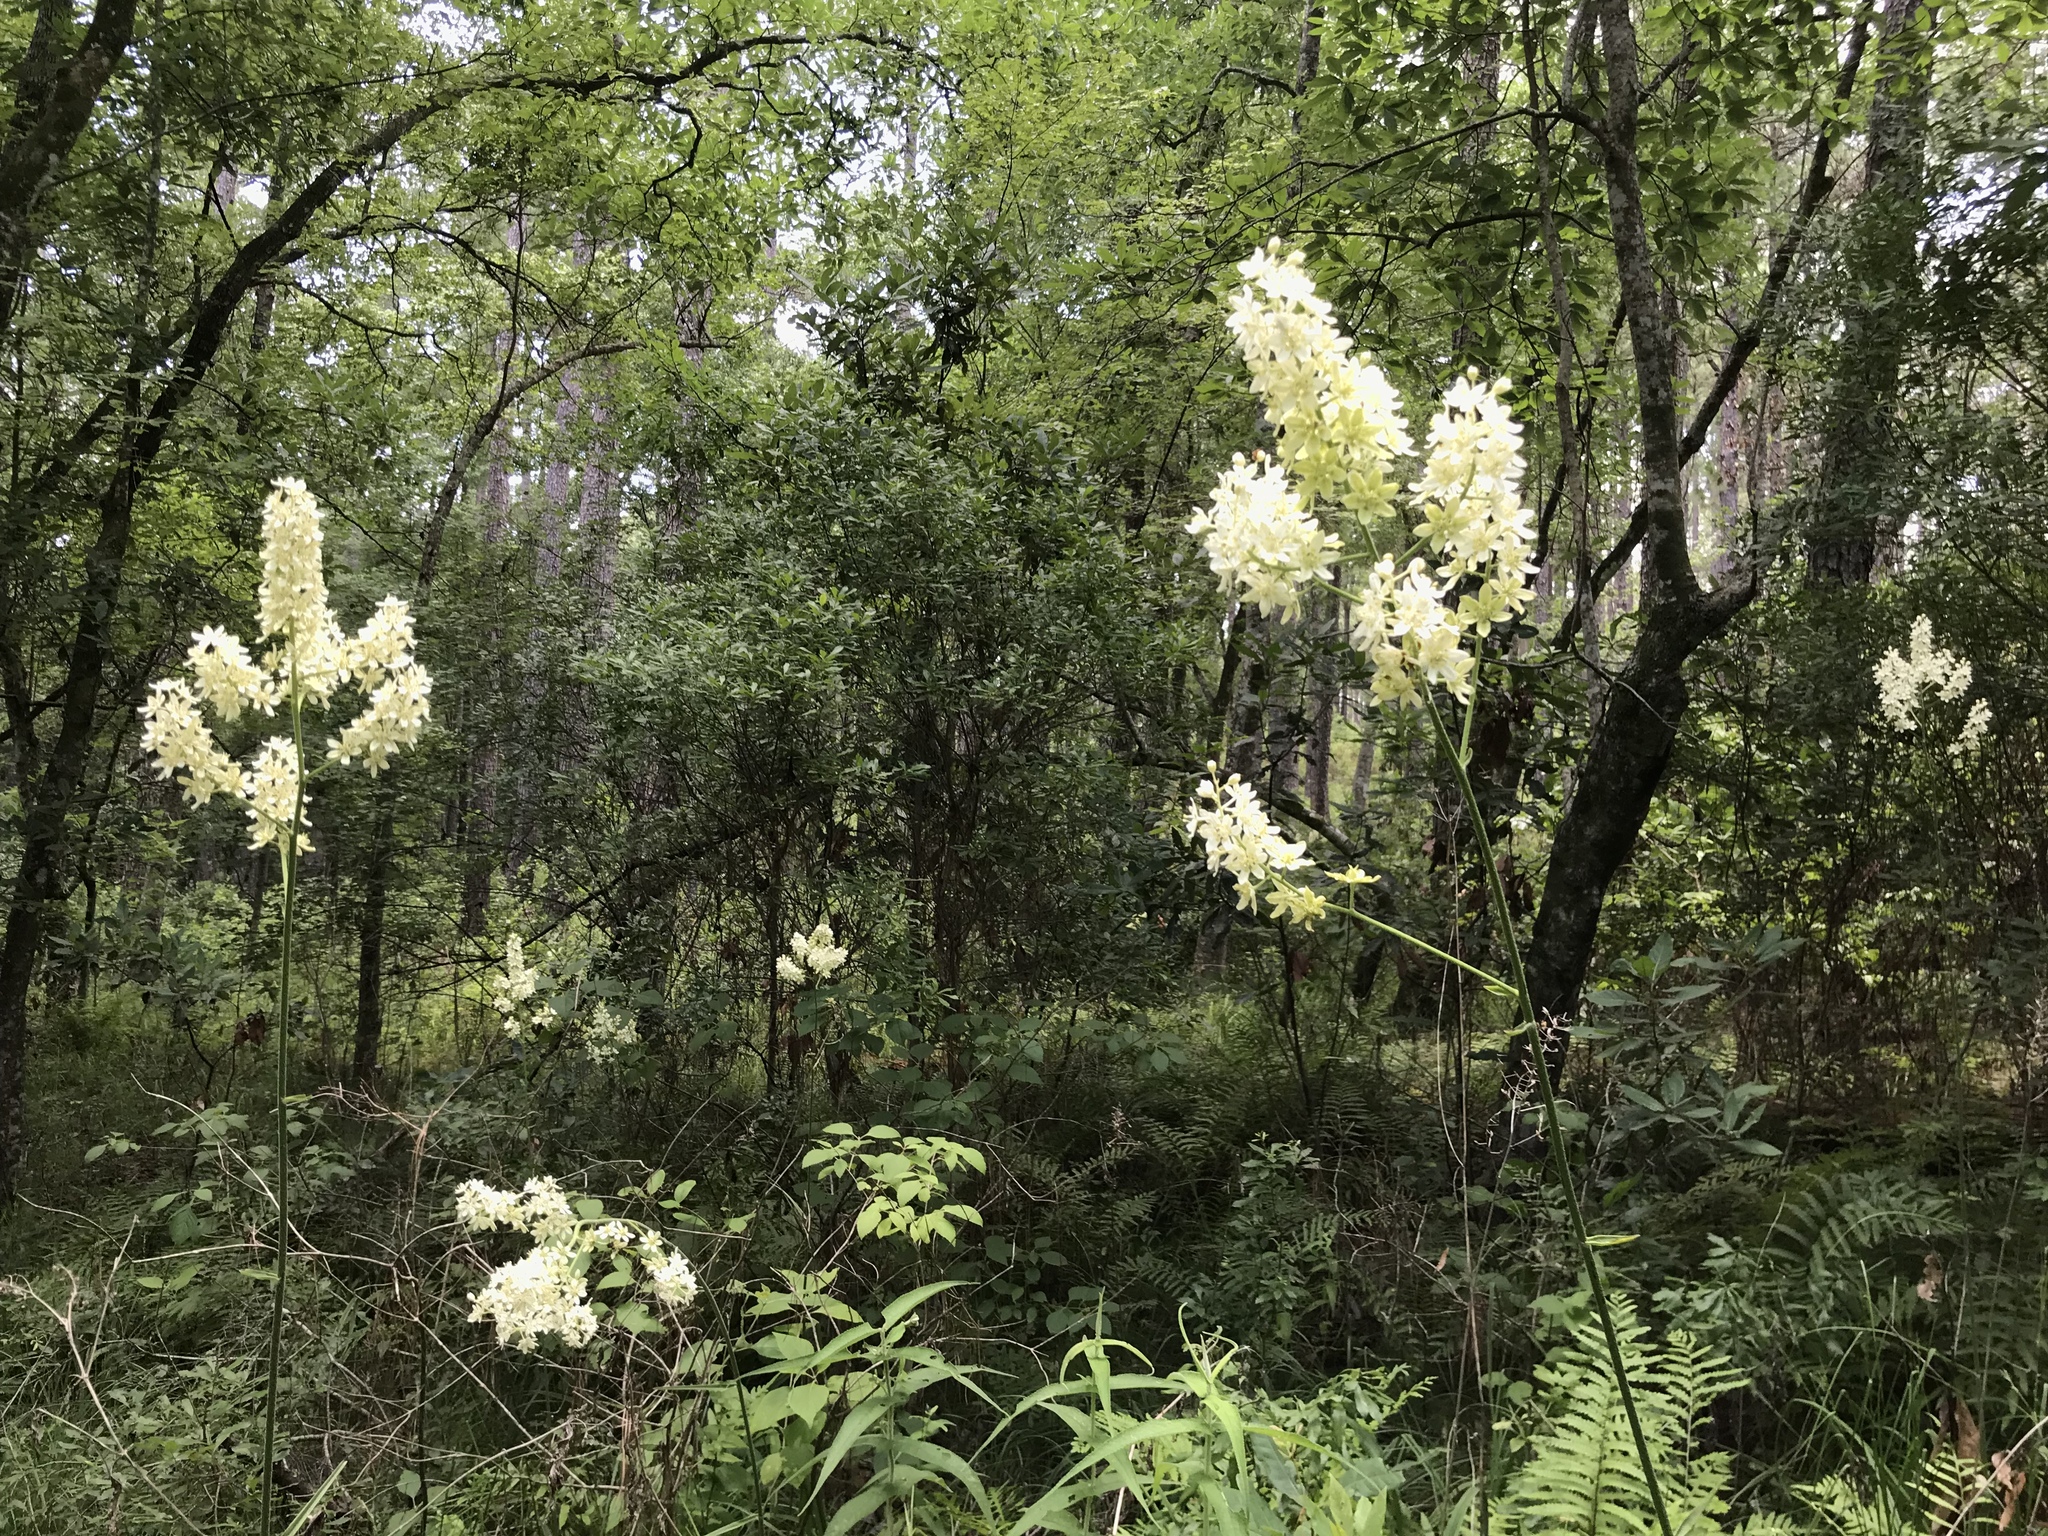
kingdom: Plantae
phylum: Tracheophyta
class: Liliopsida
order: Liliales
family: Melanthiaceae
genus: Melanthium
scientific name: Melanthium virginicum
